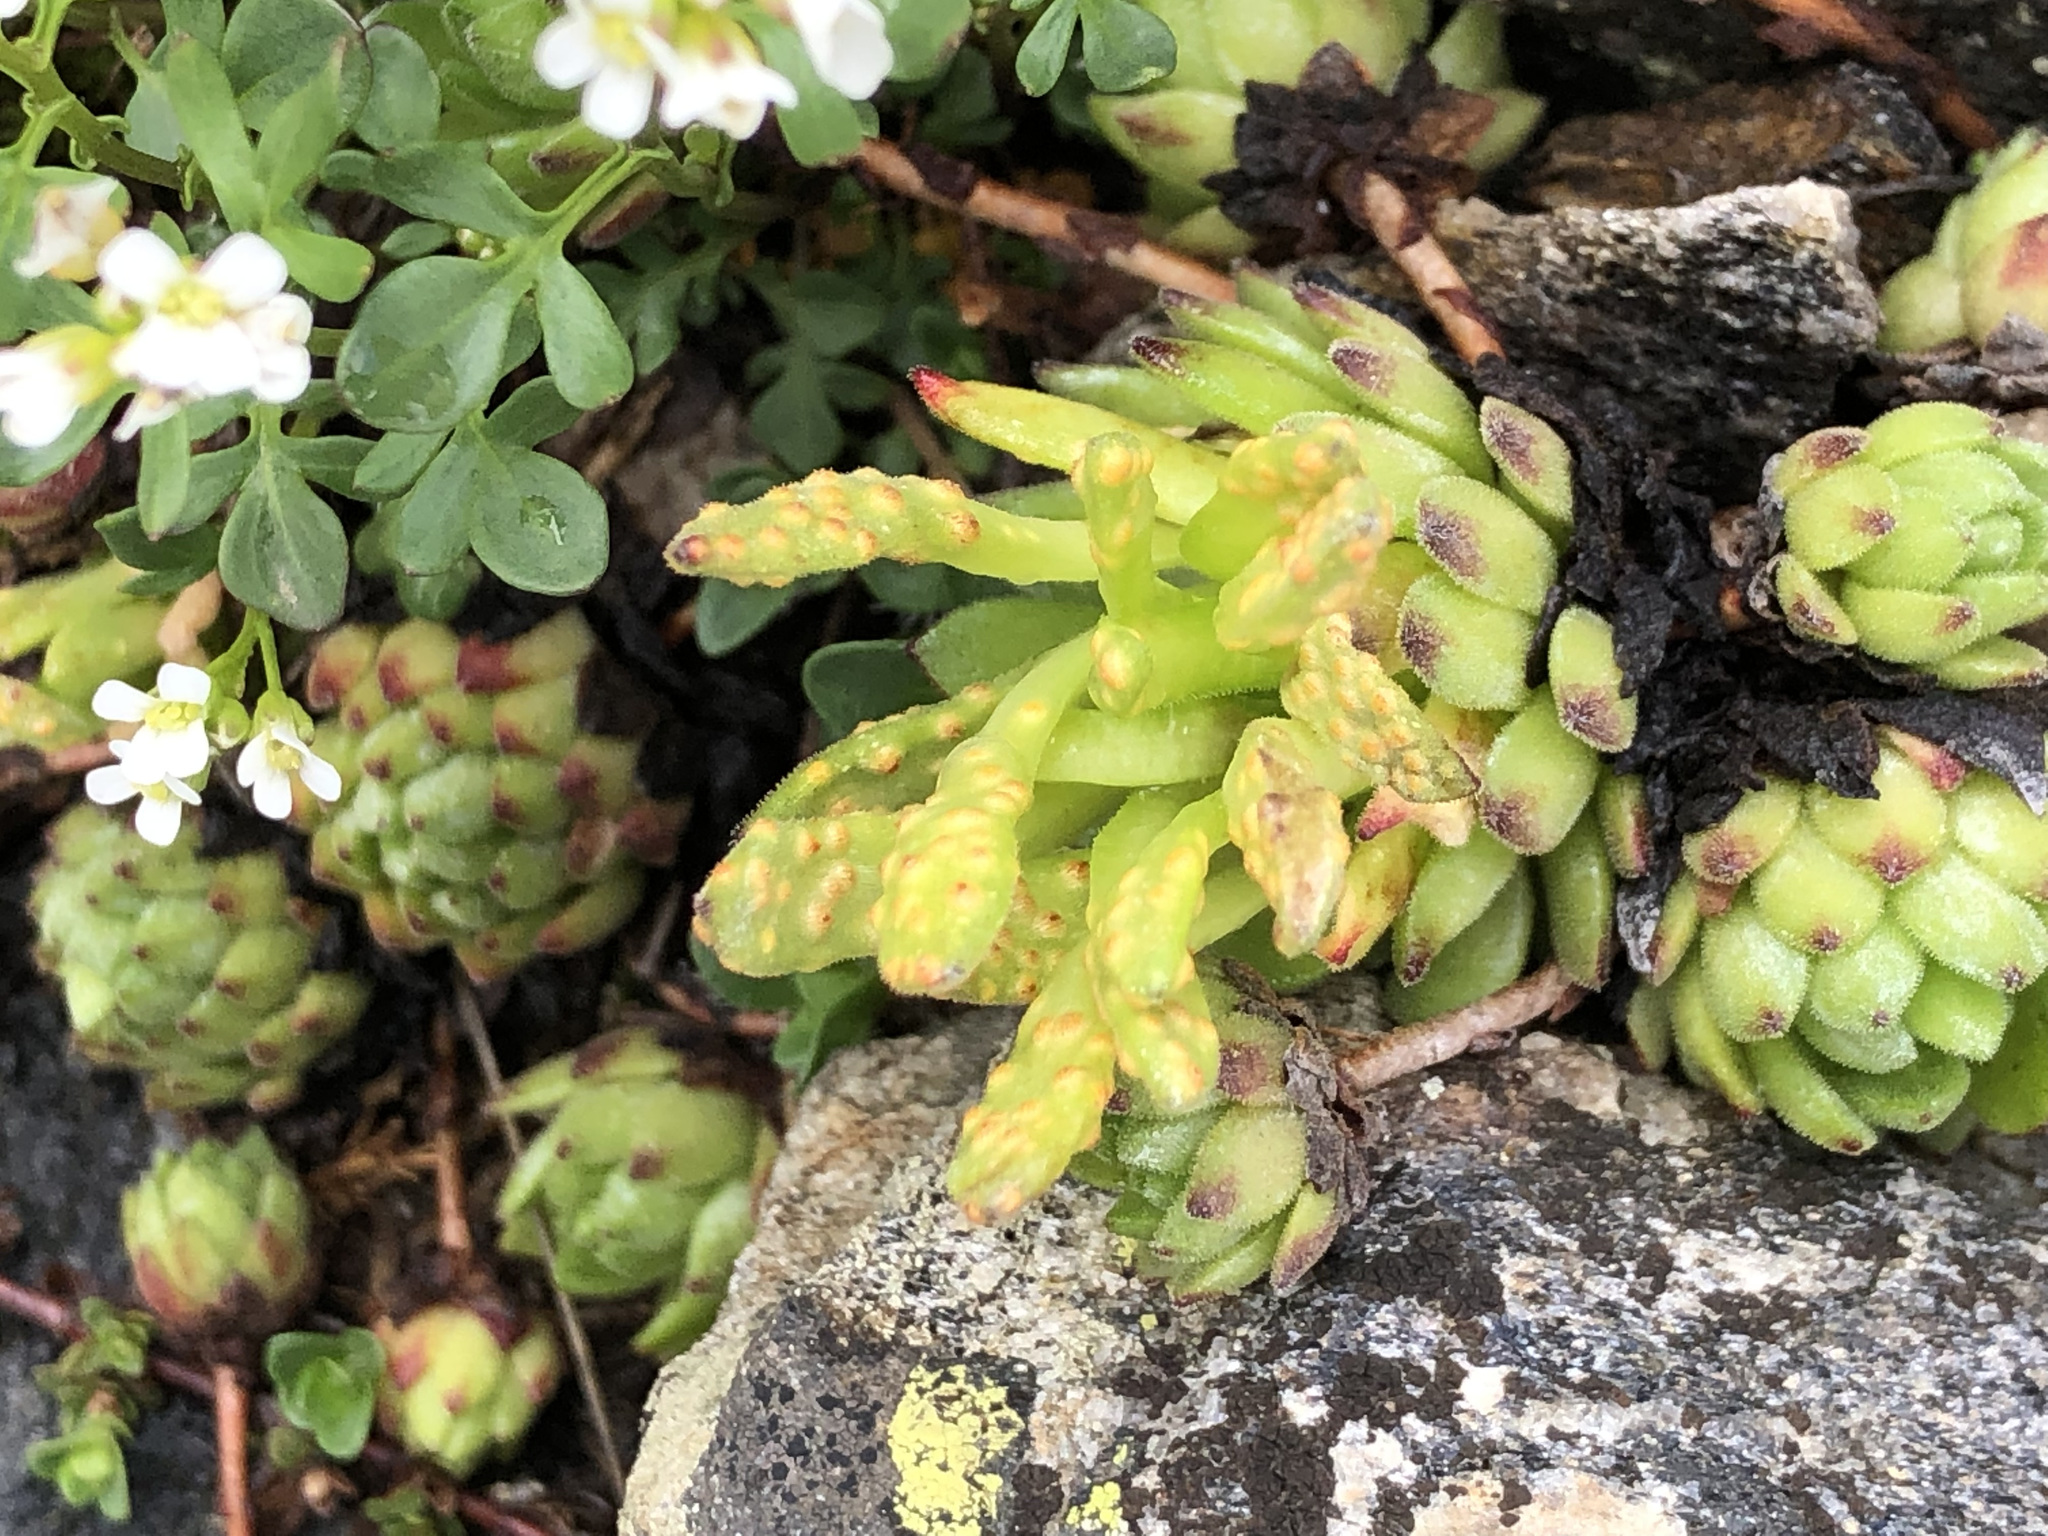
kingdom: Fungi
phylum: Basidiomycota
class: Pucciniomycetes
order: Pucciniales
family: Pucciniaceae
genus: Endophyllum
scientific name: Endophyllum sempervivi
